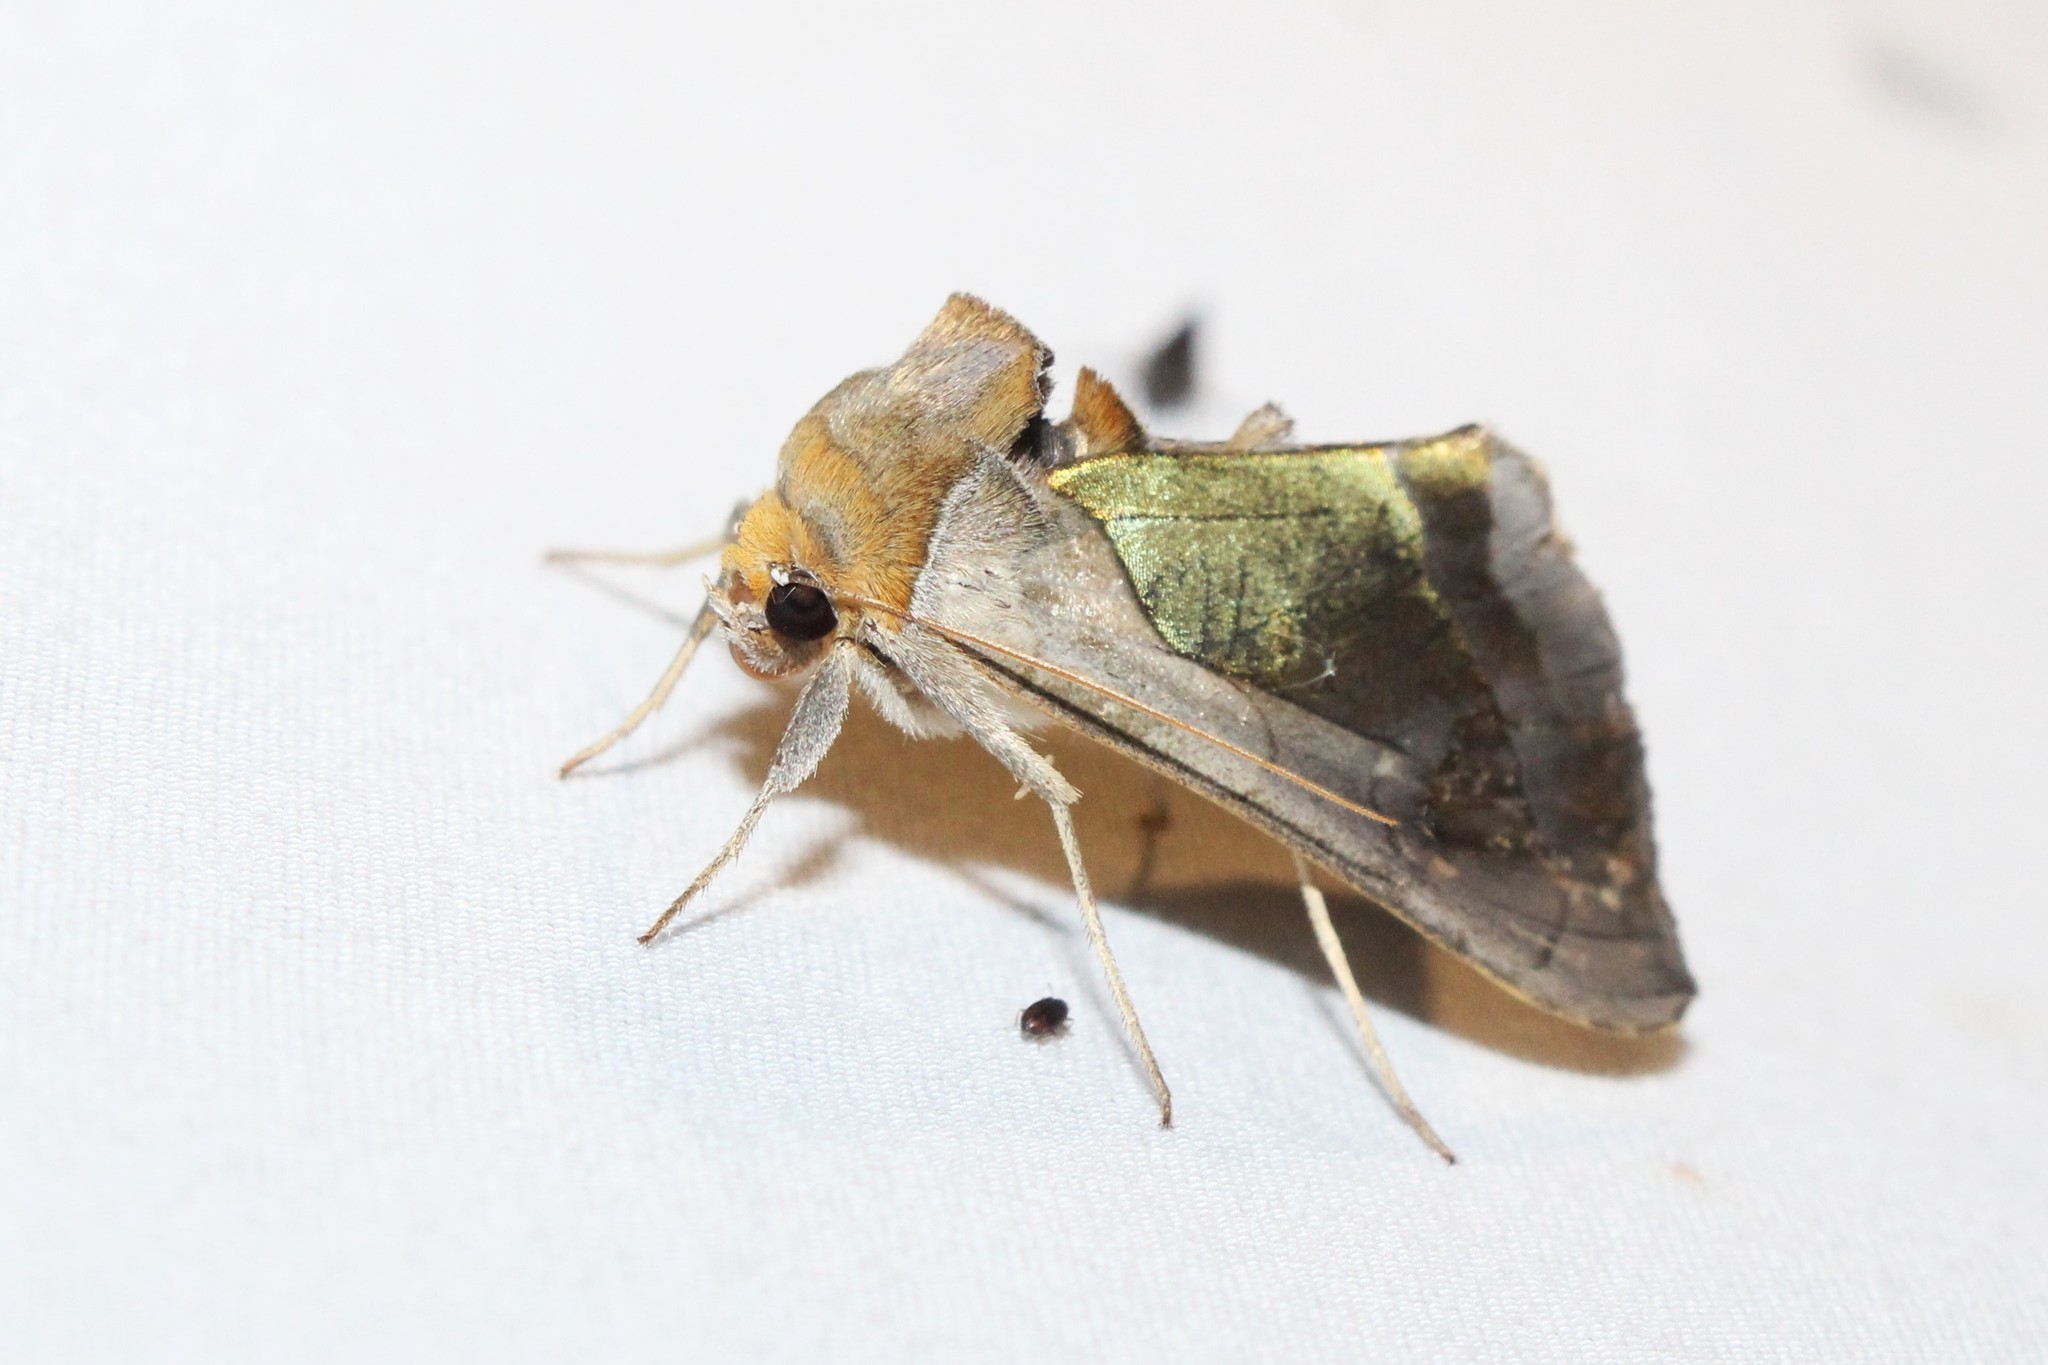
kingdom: Animalia
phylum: Arthropoda
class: Insecta
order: Lepidoptera
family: Noctuidae
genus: Diachrysia
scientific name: Diachrysia balluca
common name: Green-patched looper moth
